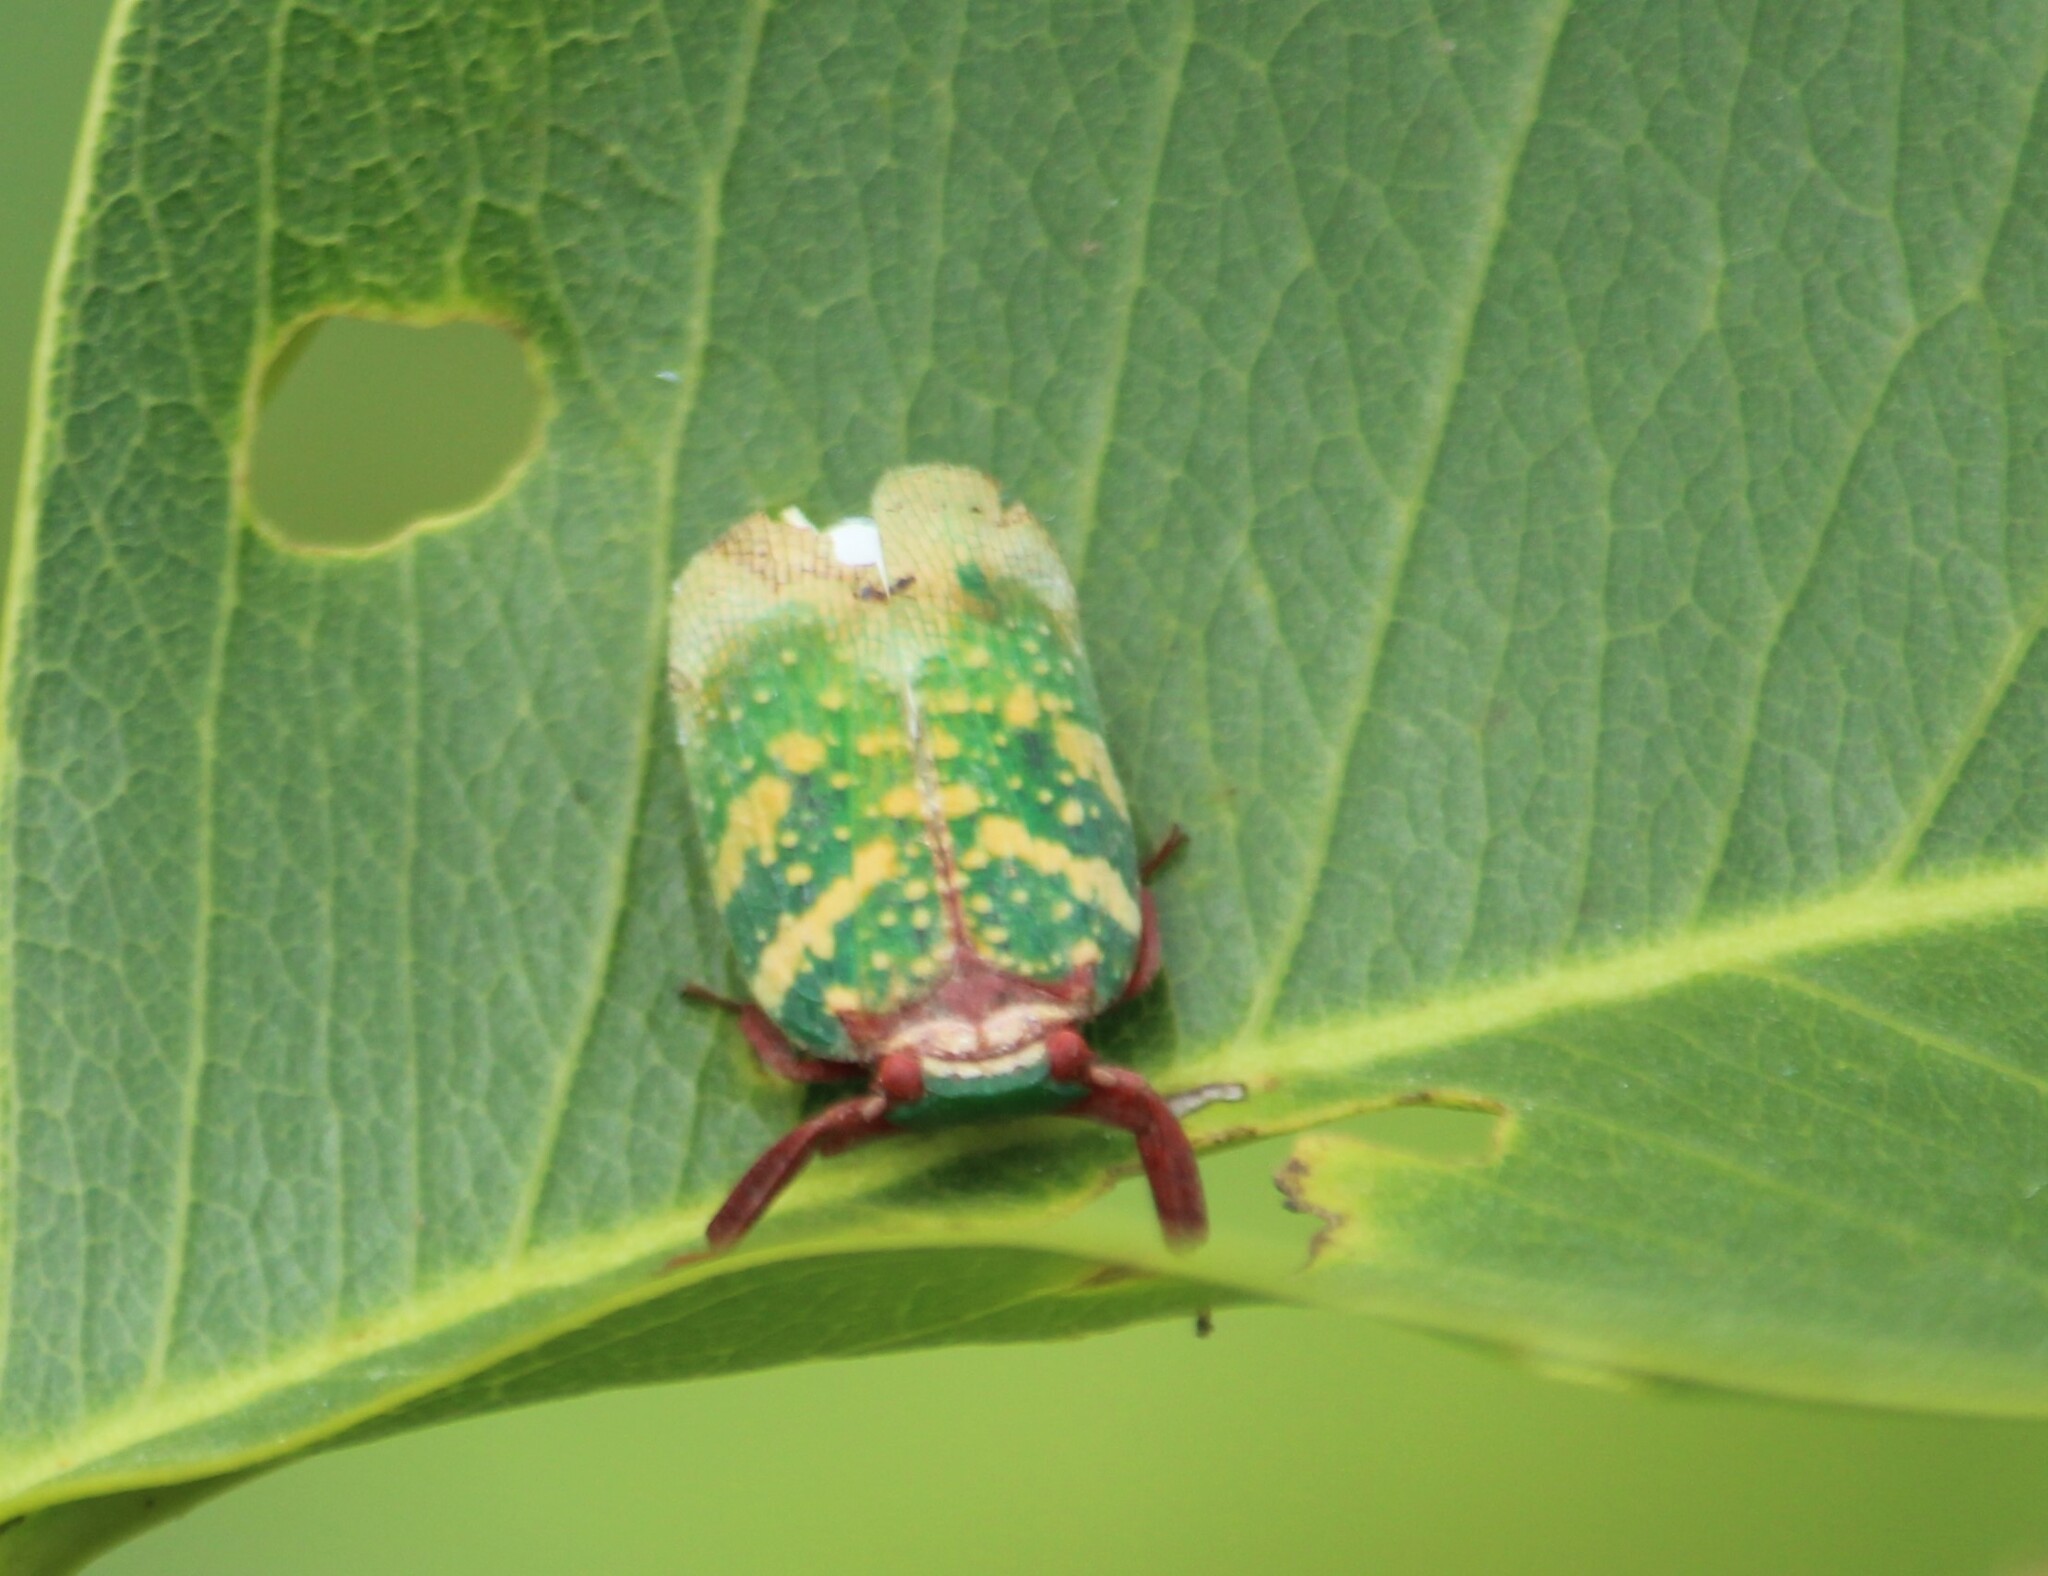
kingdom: Animalia
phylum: Arthropoda
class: Insecta
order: Hemiptera
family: Eurybrachidae
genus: Eurybrachys
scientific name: Eurybrachys tomentosa
